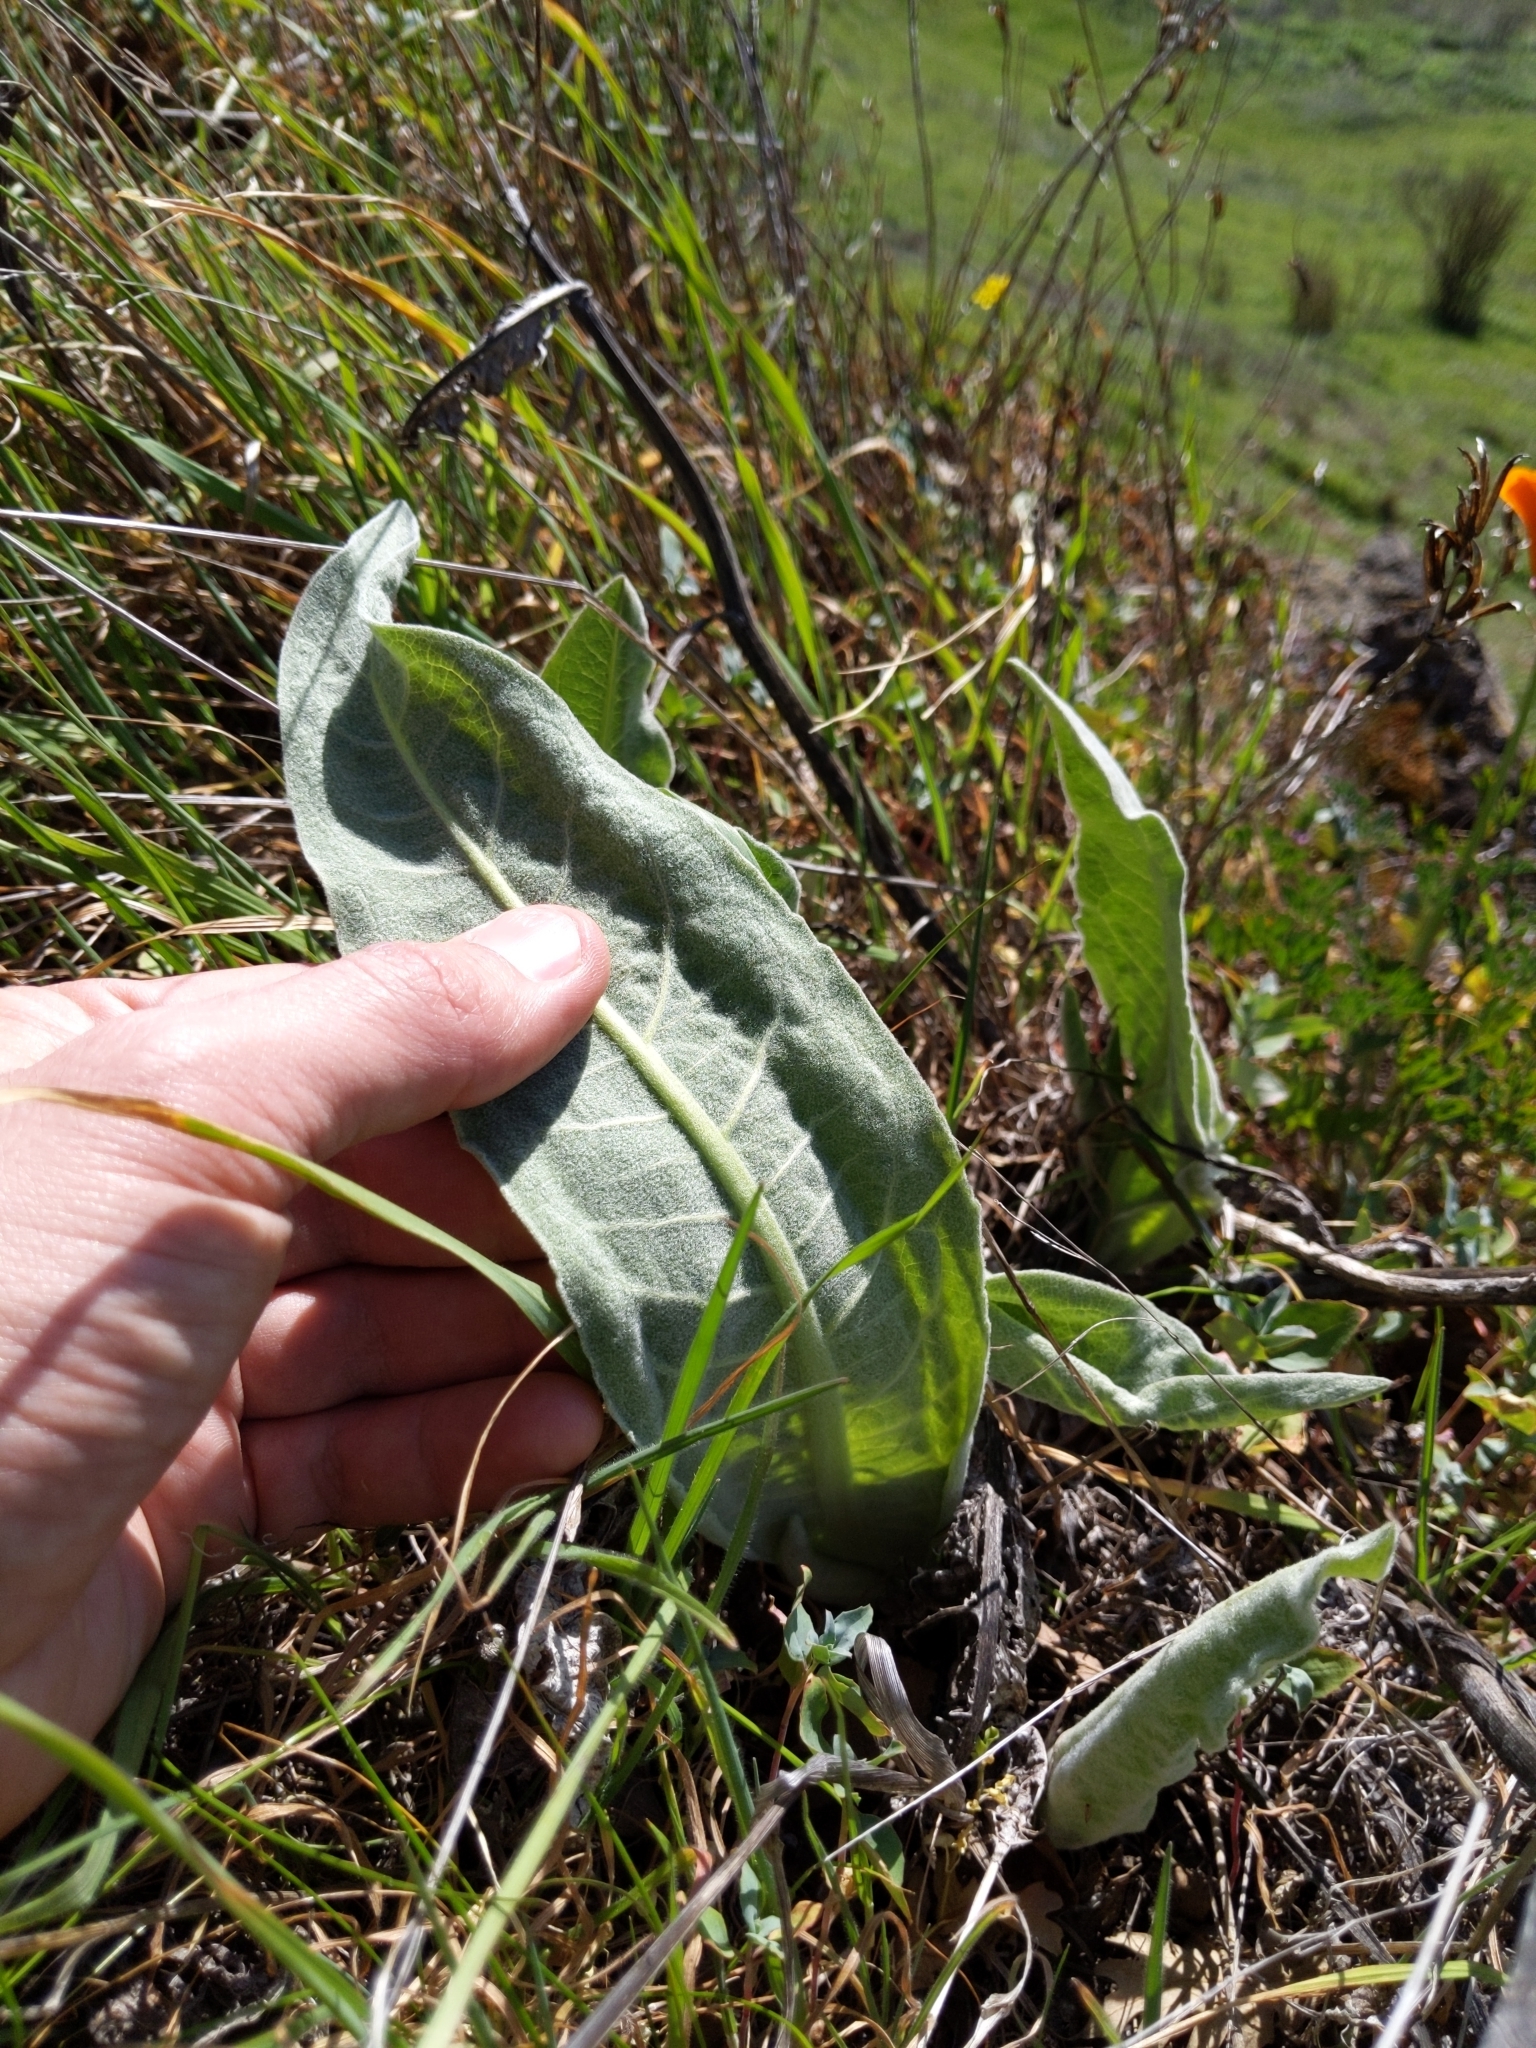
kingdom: Plantae
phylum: Tracheophyta
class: Magnoliopsida
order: Asterales
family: Asteraceae
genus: Wyethia
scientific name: Wyethia helenioides
